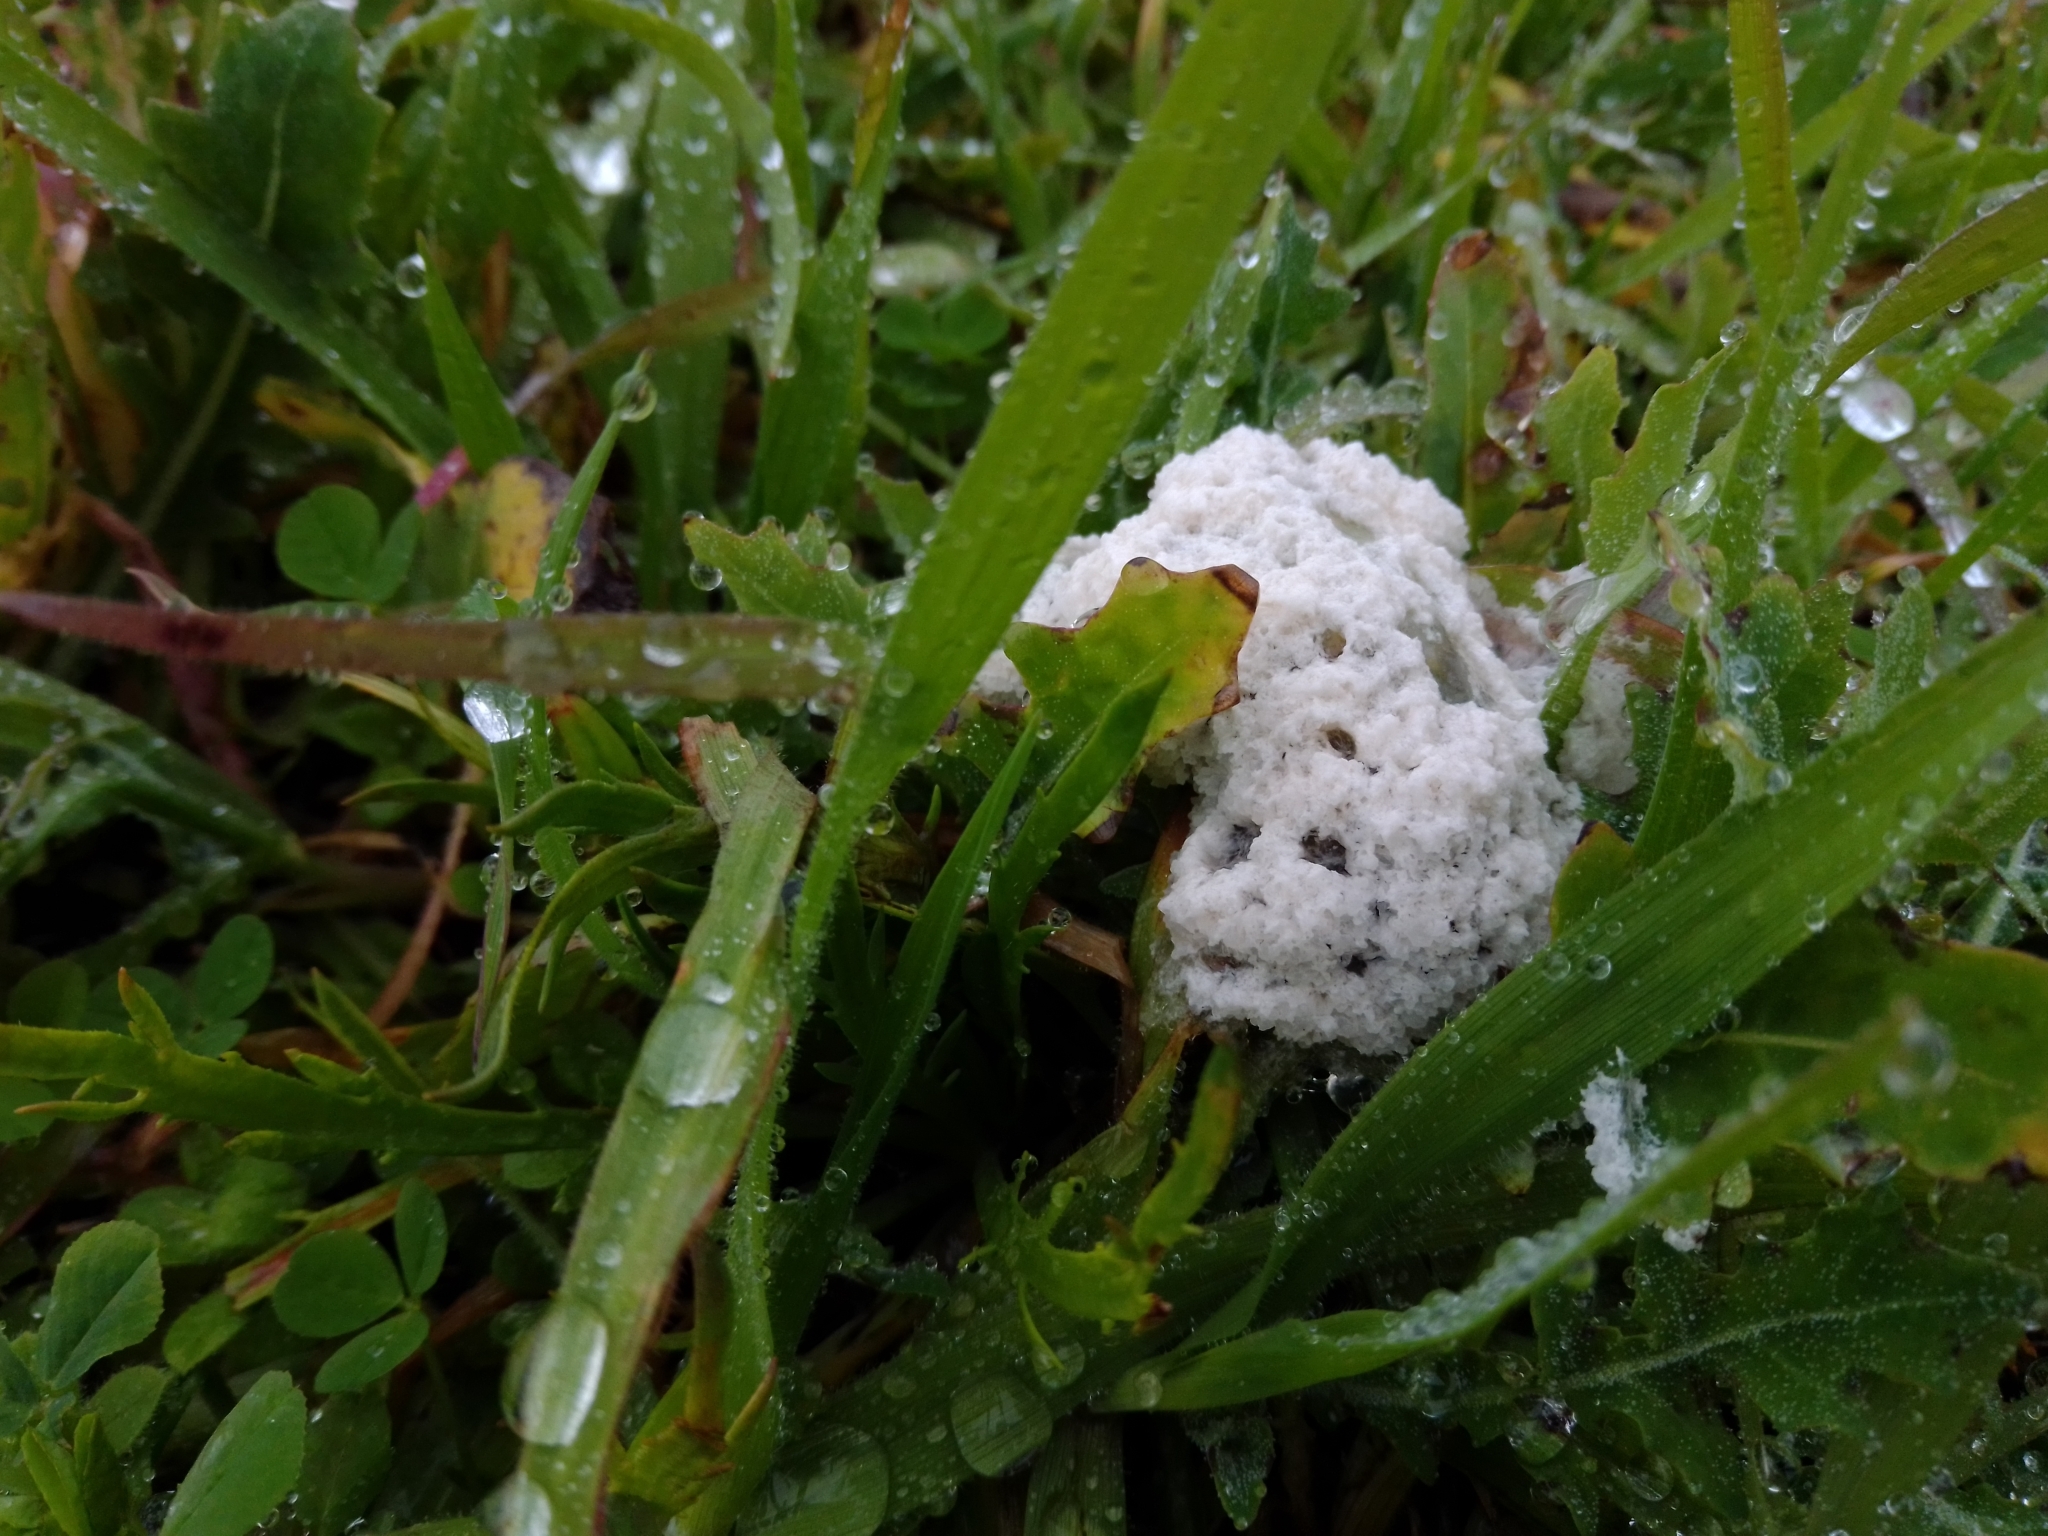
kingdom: Protozoa
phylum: Mycetozoa
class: Myxomycetes
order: Physarales
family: Physaraceae
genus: Didymium
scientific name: Didymium
